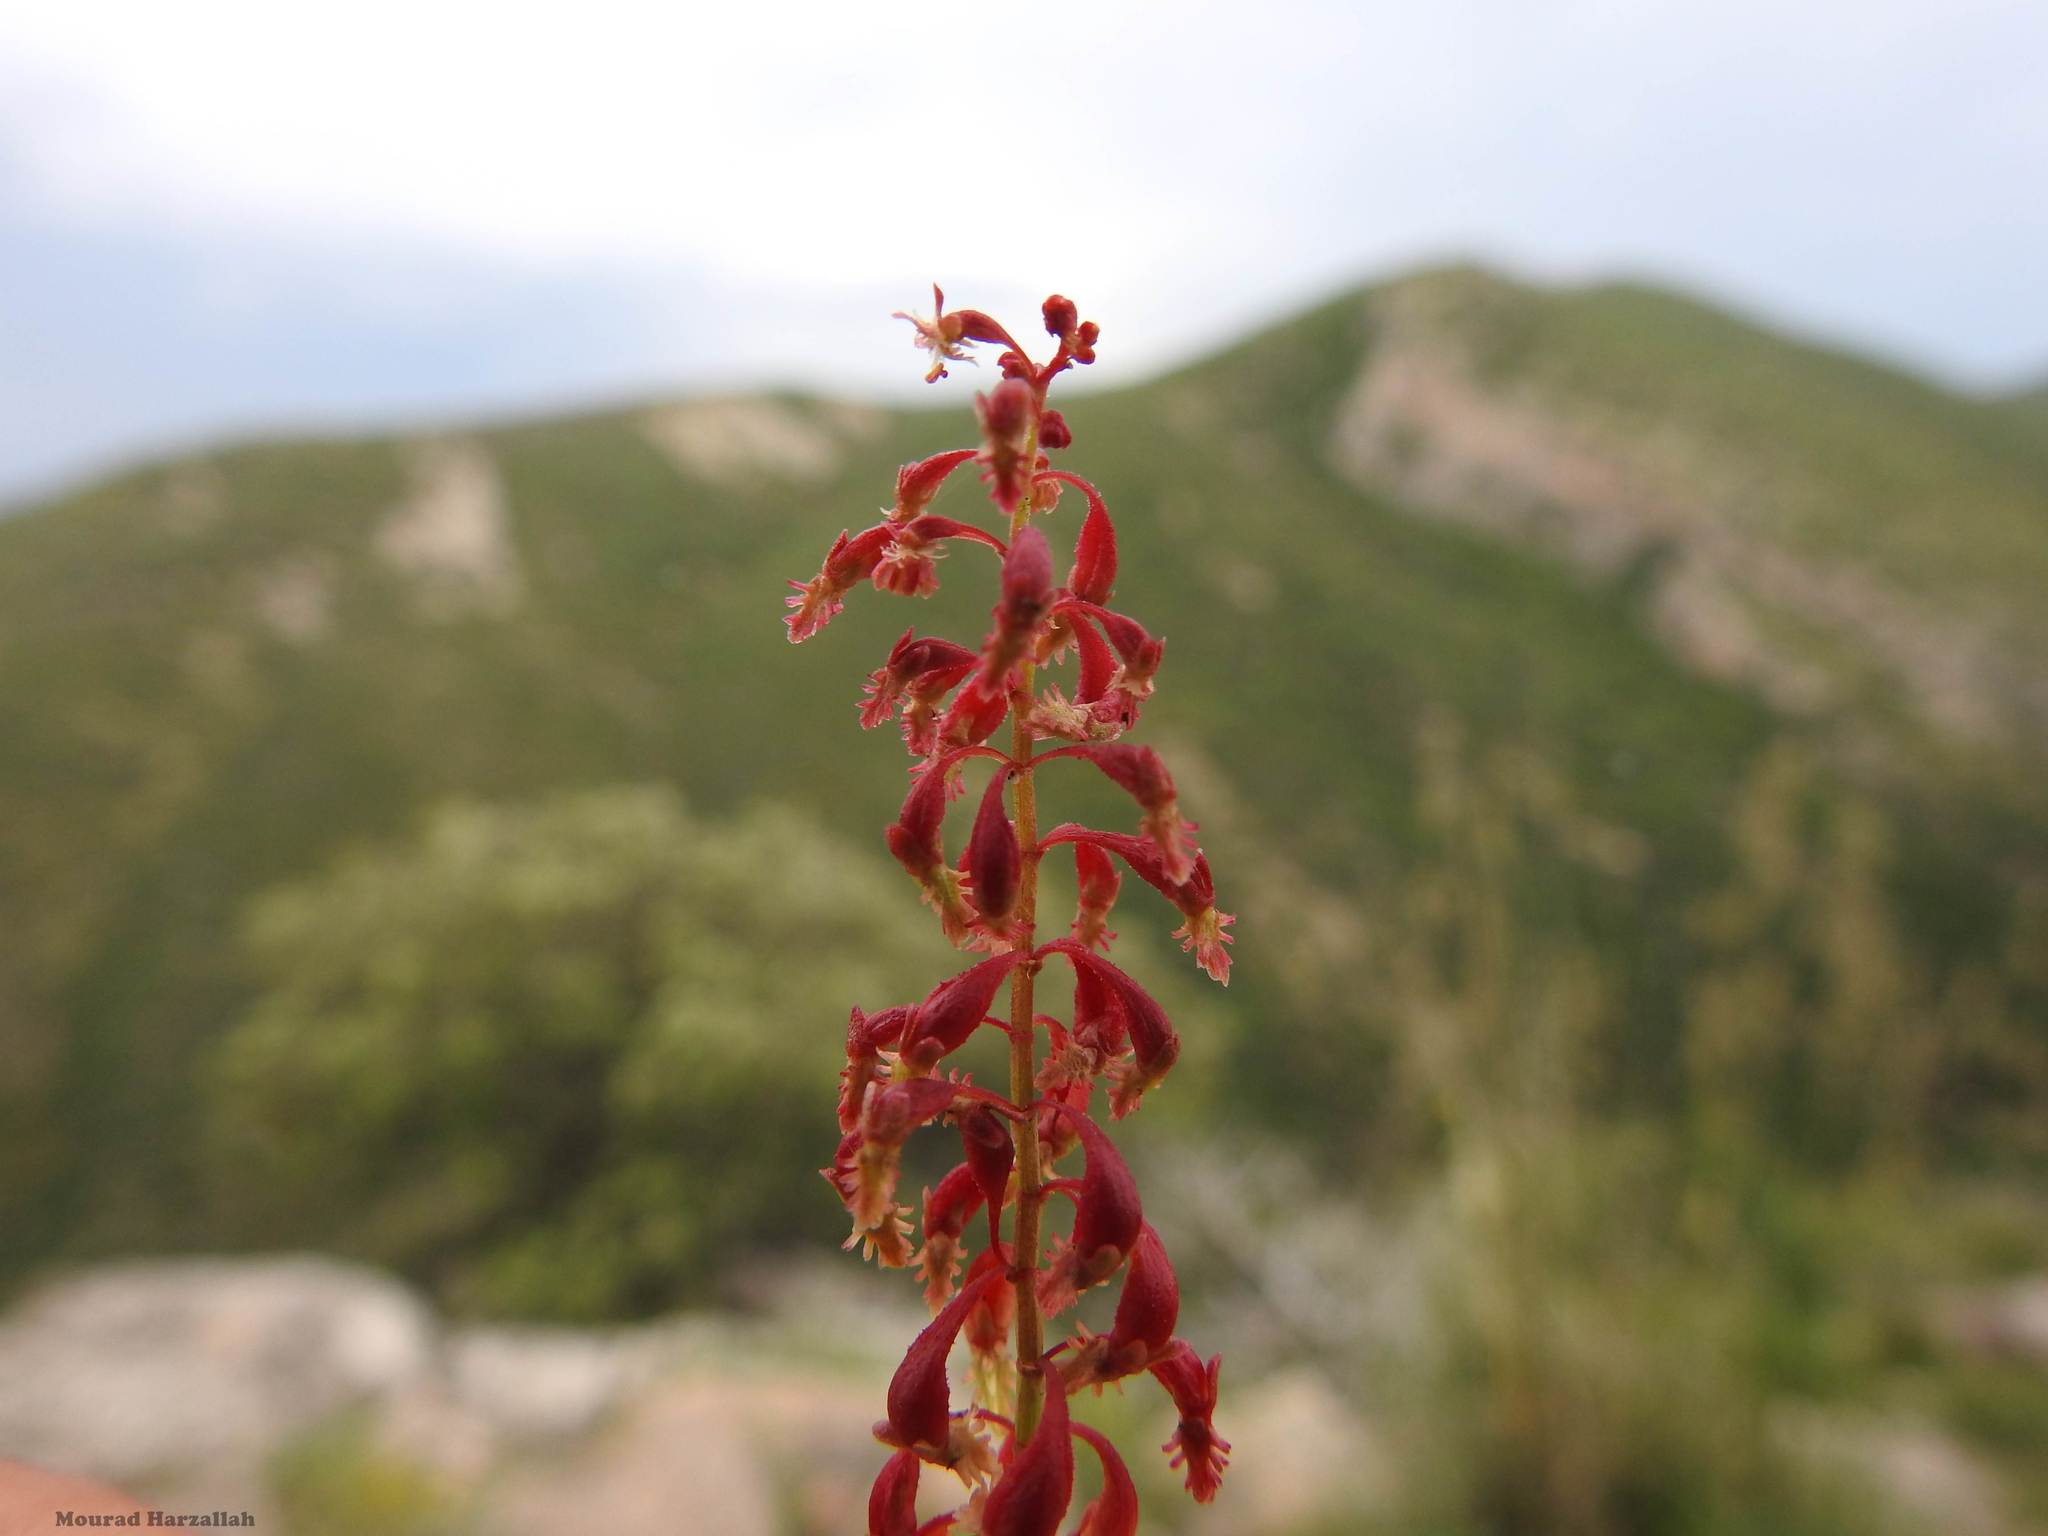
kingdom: Plantae
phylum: Tracheophyta
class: Magnoliopsida
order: Caryophyllales
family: Polygonaceae
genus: Rumex
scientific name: Rumex bucephalophorus
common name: Red dock
